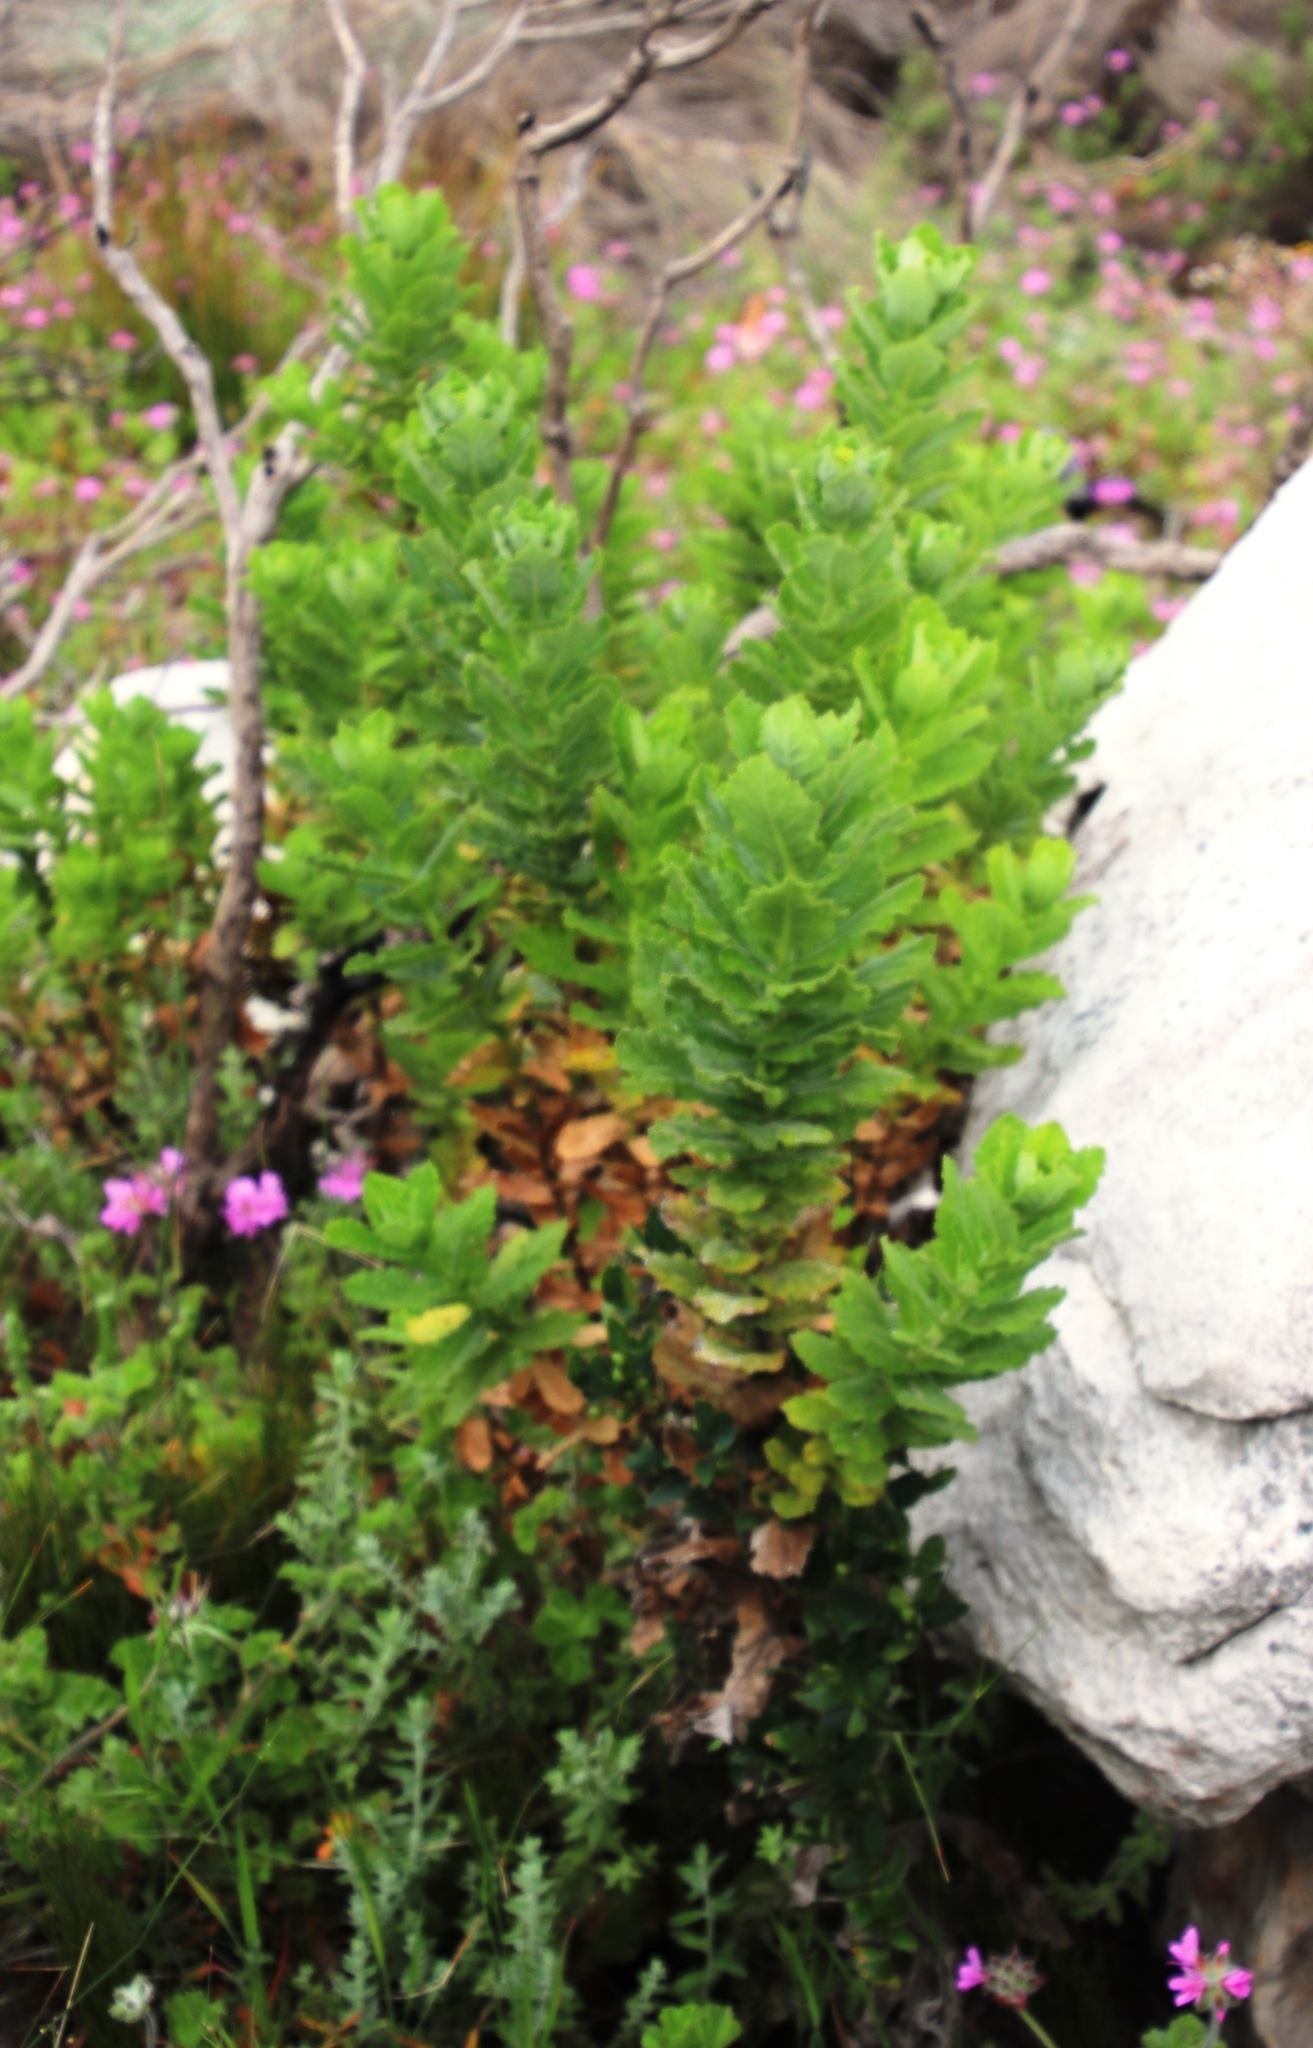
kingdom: Plantae
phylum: Tracheophyta
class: Magnoliopsida
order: Asterales
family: Asteraceae
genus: Senecio
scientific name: Senecio rigidus
